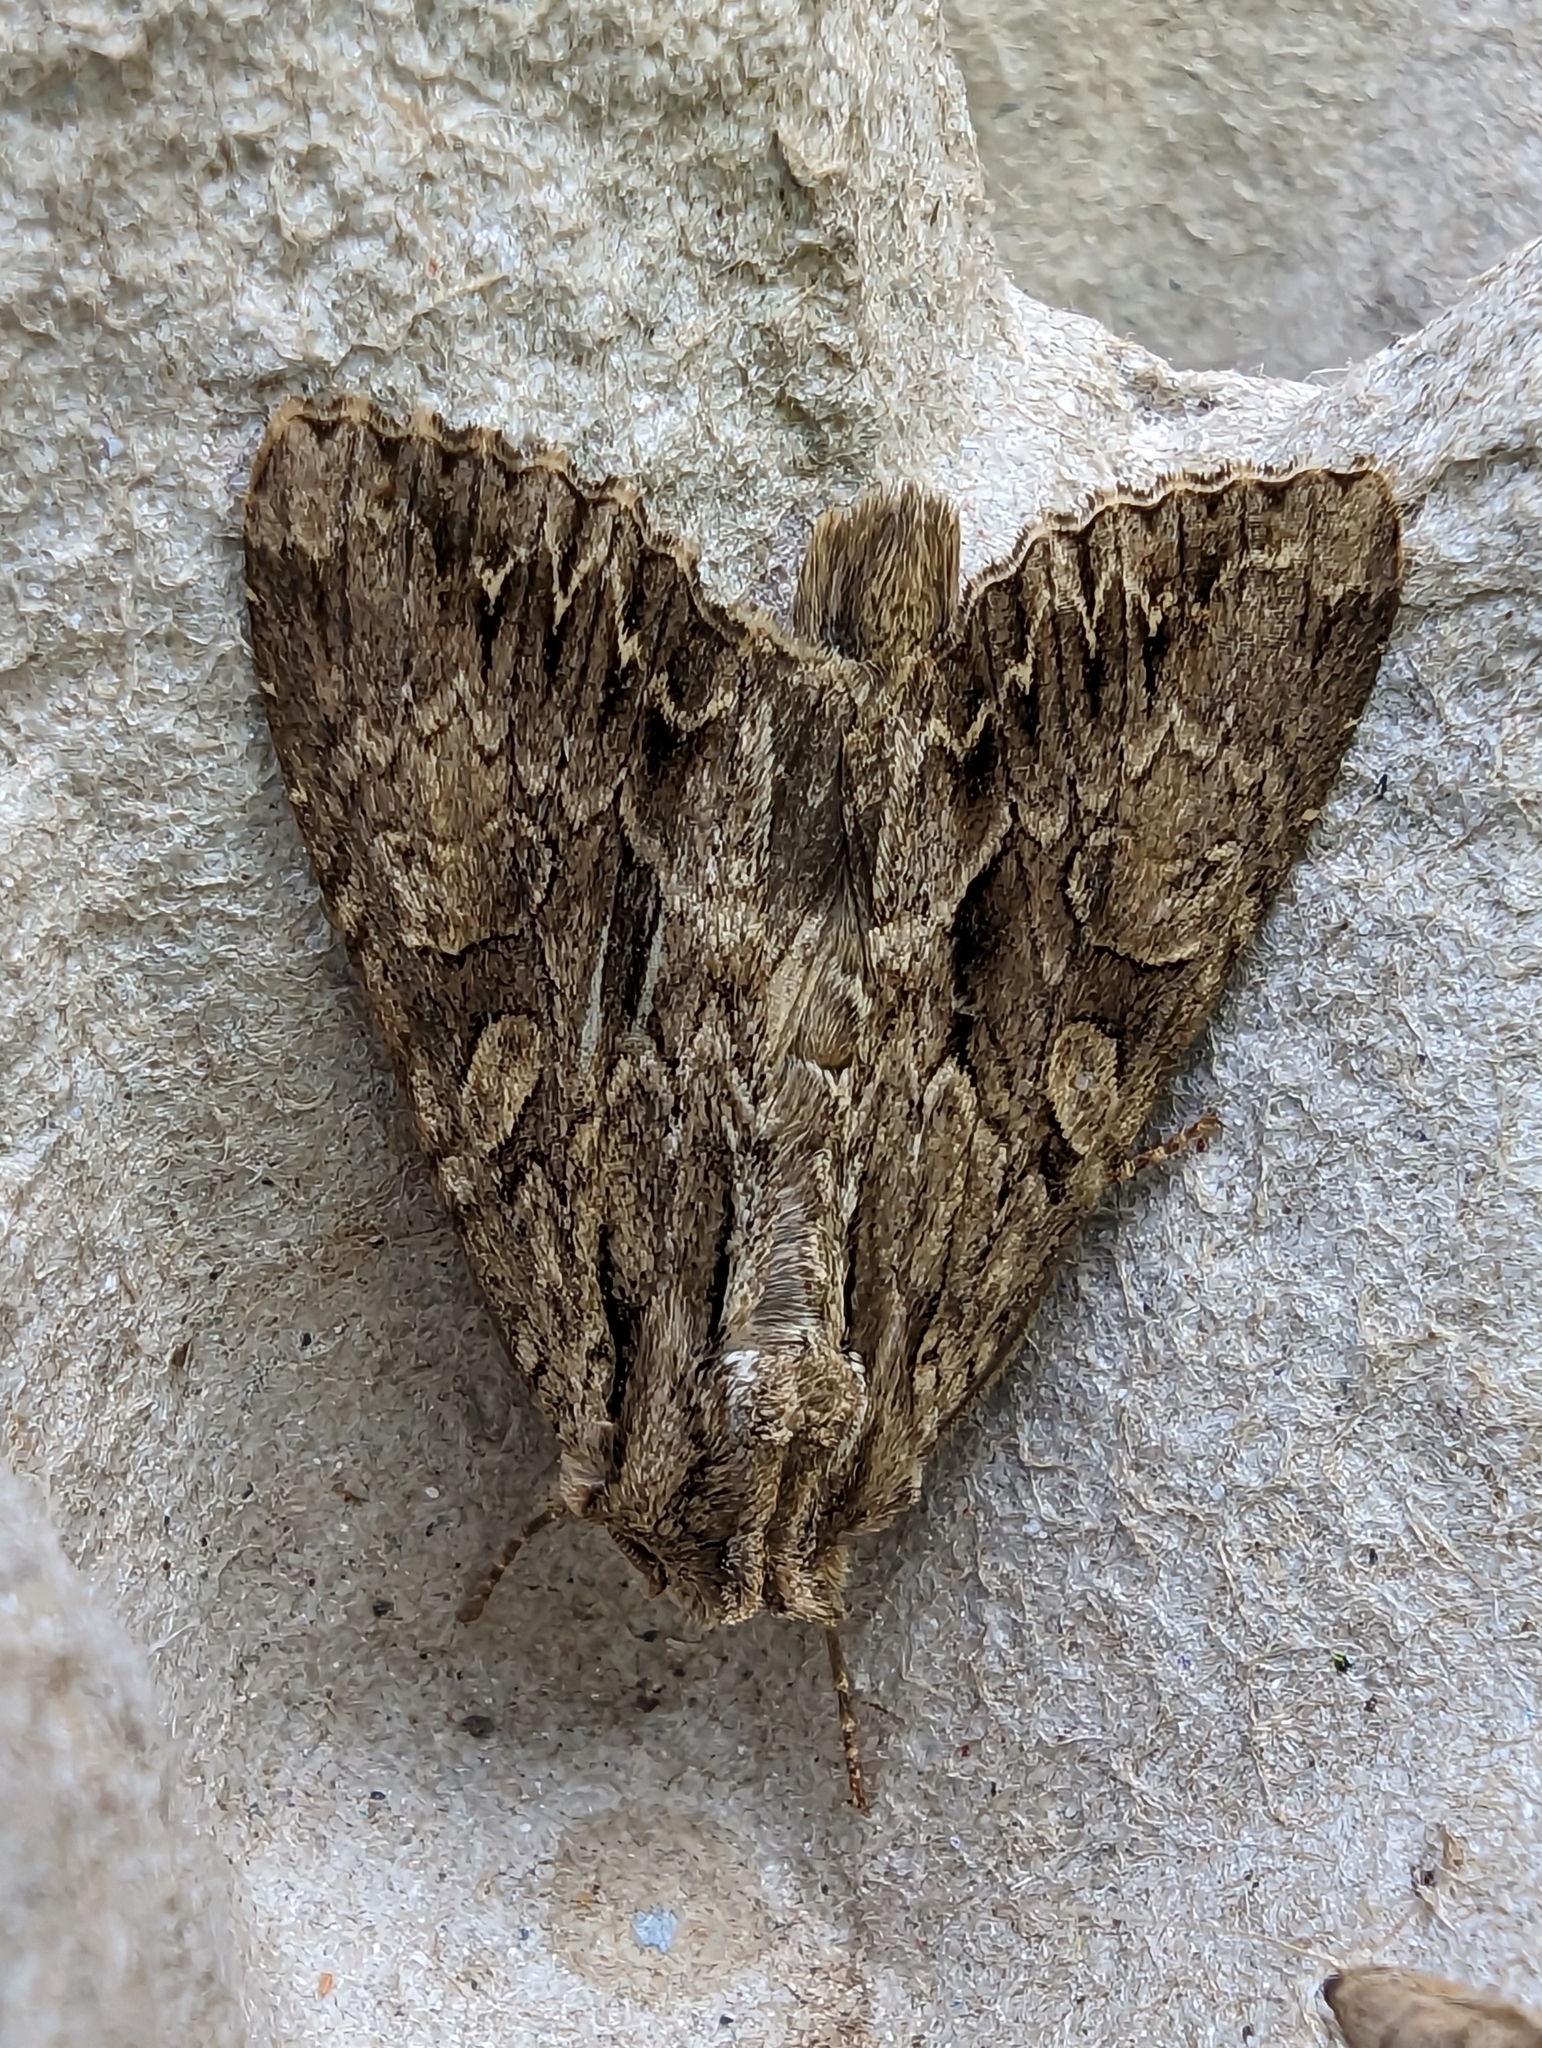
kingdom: Animalia
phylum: Arthropoda
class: Insecta
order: Lepidoptera
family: Noctuidae
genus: Apamea
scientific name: Apamea monoglypha
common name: Dark arches
